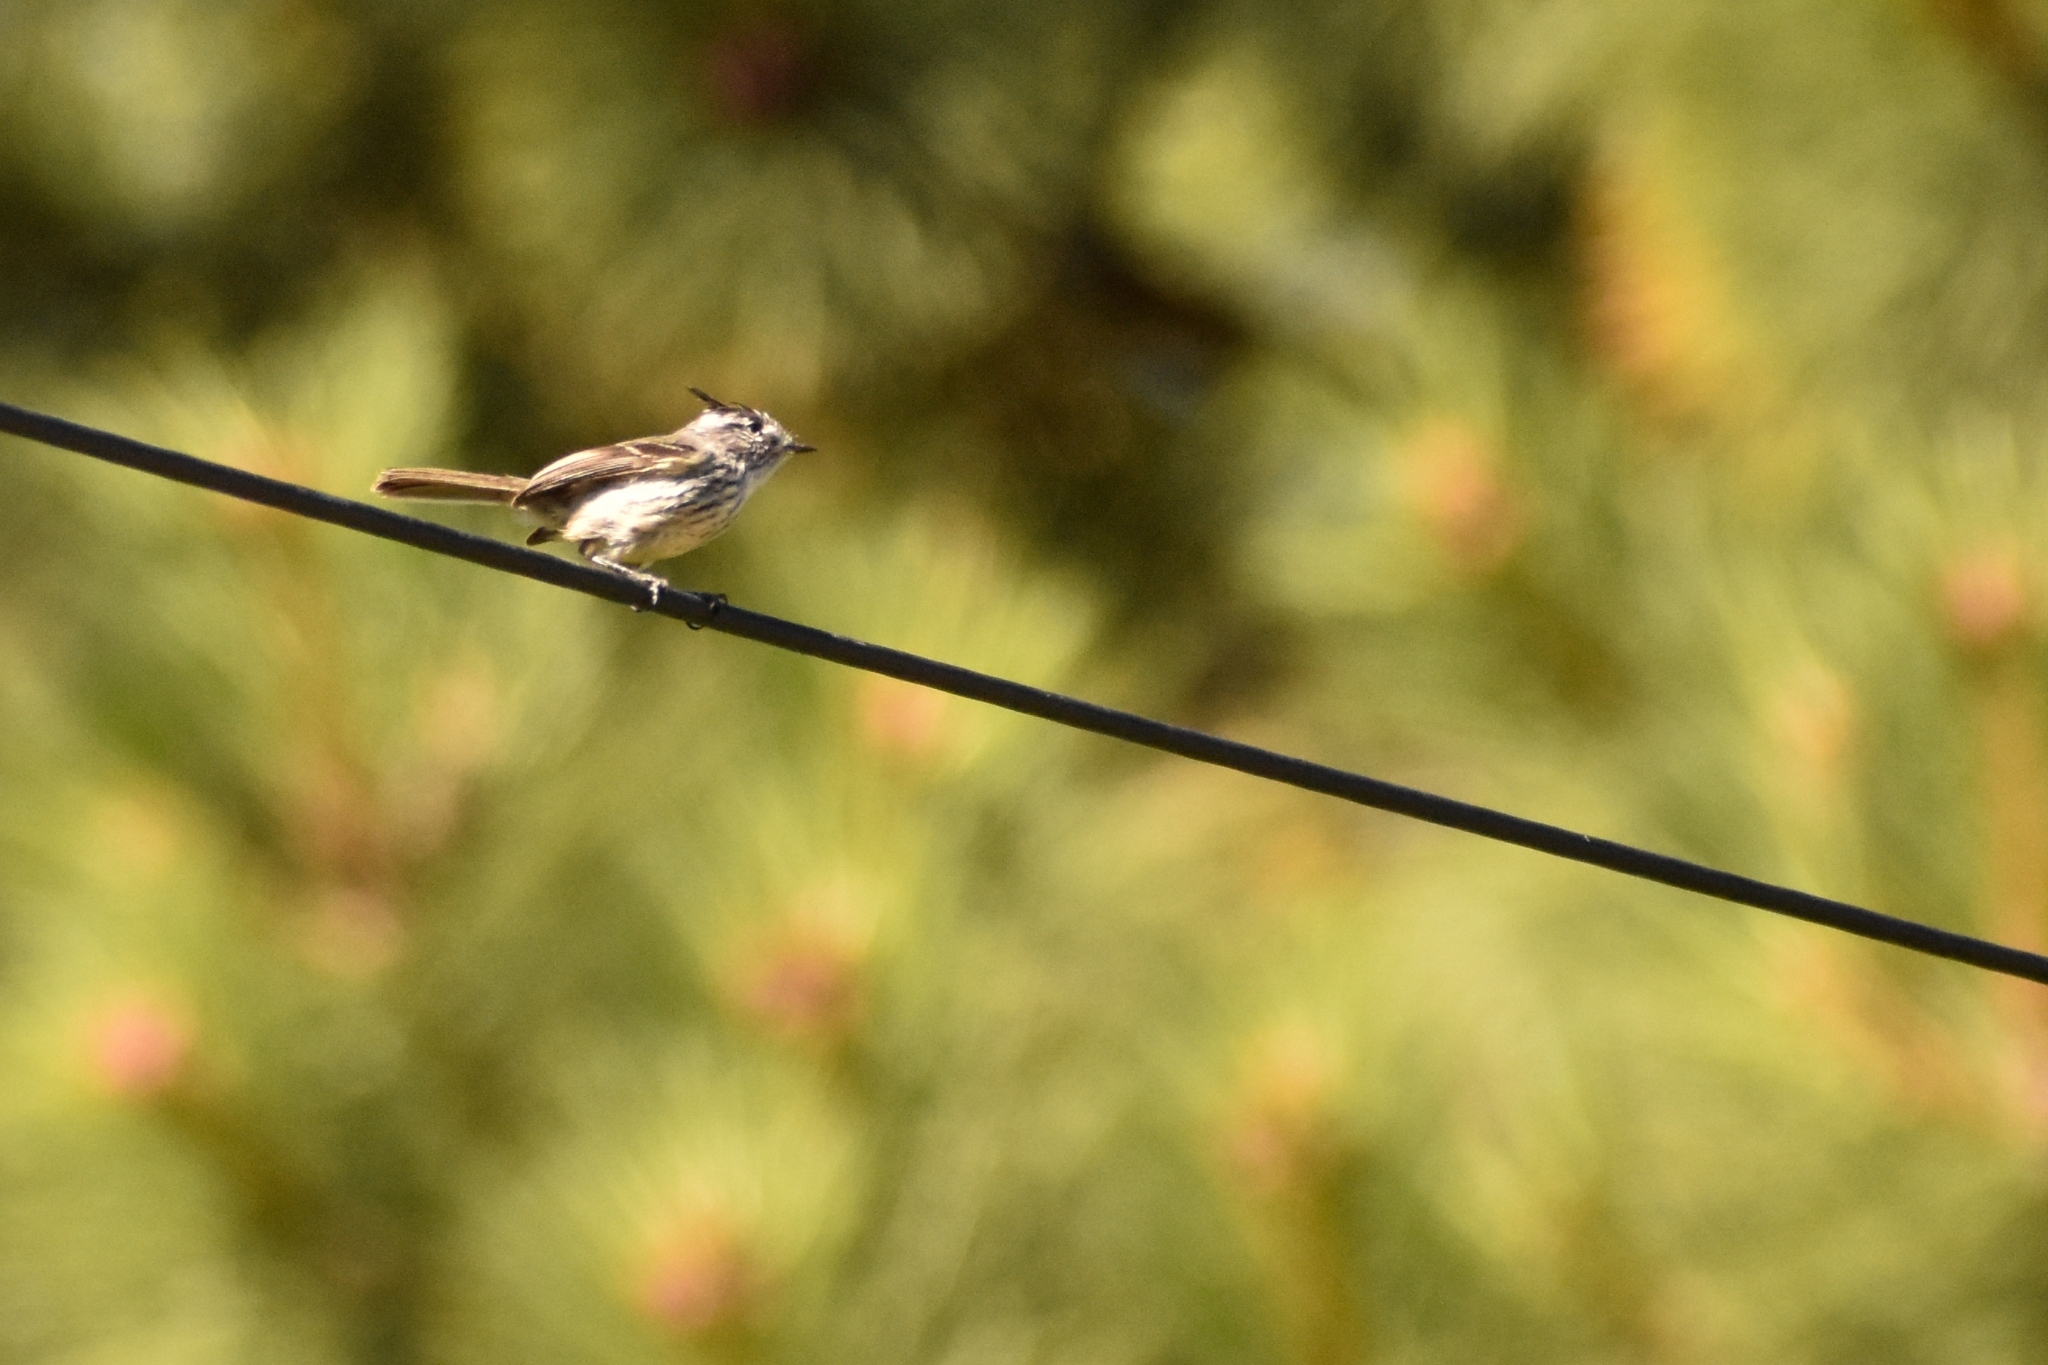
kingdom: Animalia
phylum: Chordata
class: Aves
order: Passeriformes
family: Tyrannidae
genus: Anairetes
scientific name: Anairetes parulus
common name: Tufted tit-tyrant
